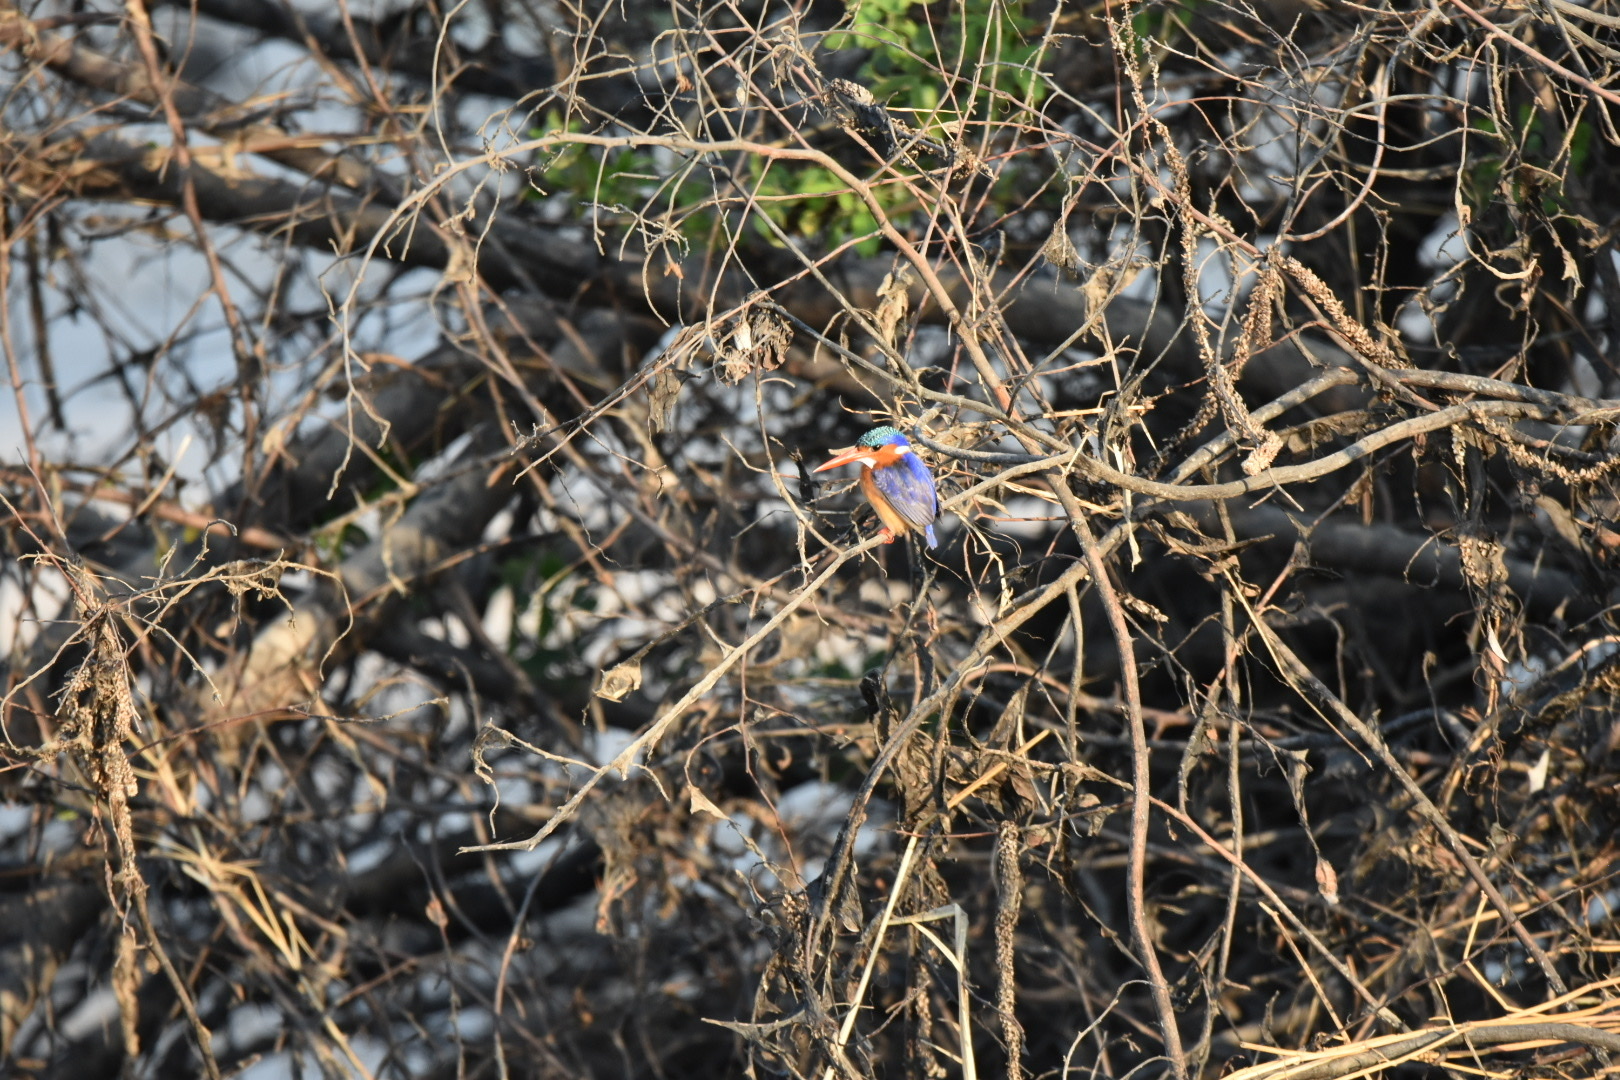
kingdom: Animalia
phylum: Chordata
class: Aves
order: Coraciiformes
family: Alcedinidae
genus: Corythornis
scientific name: Corythornis cristatus
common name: Malachite kingfisher
